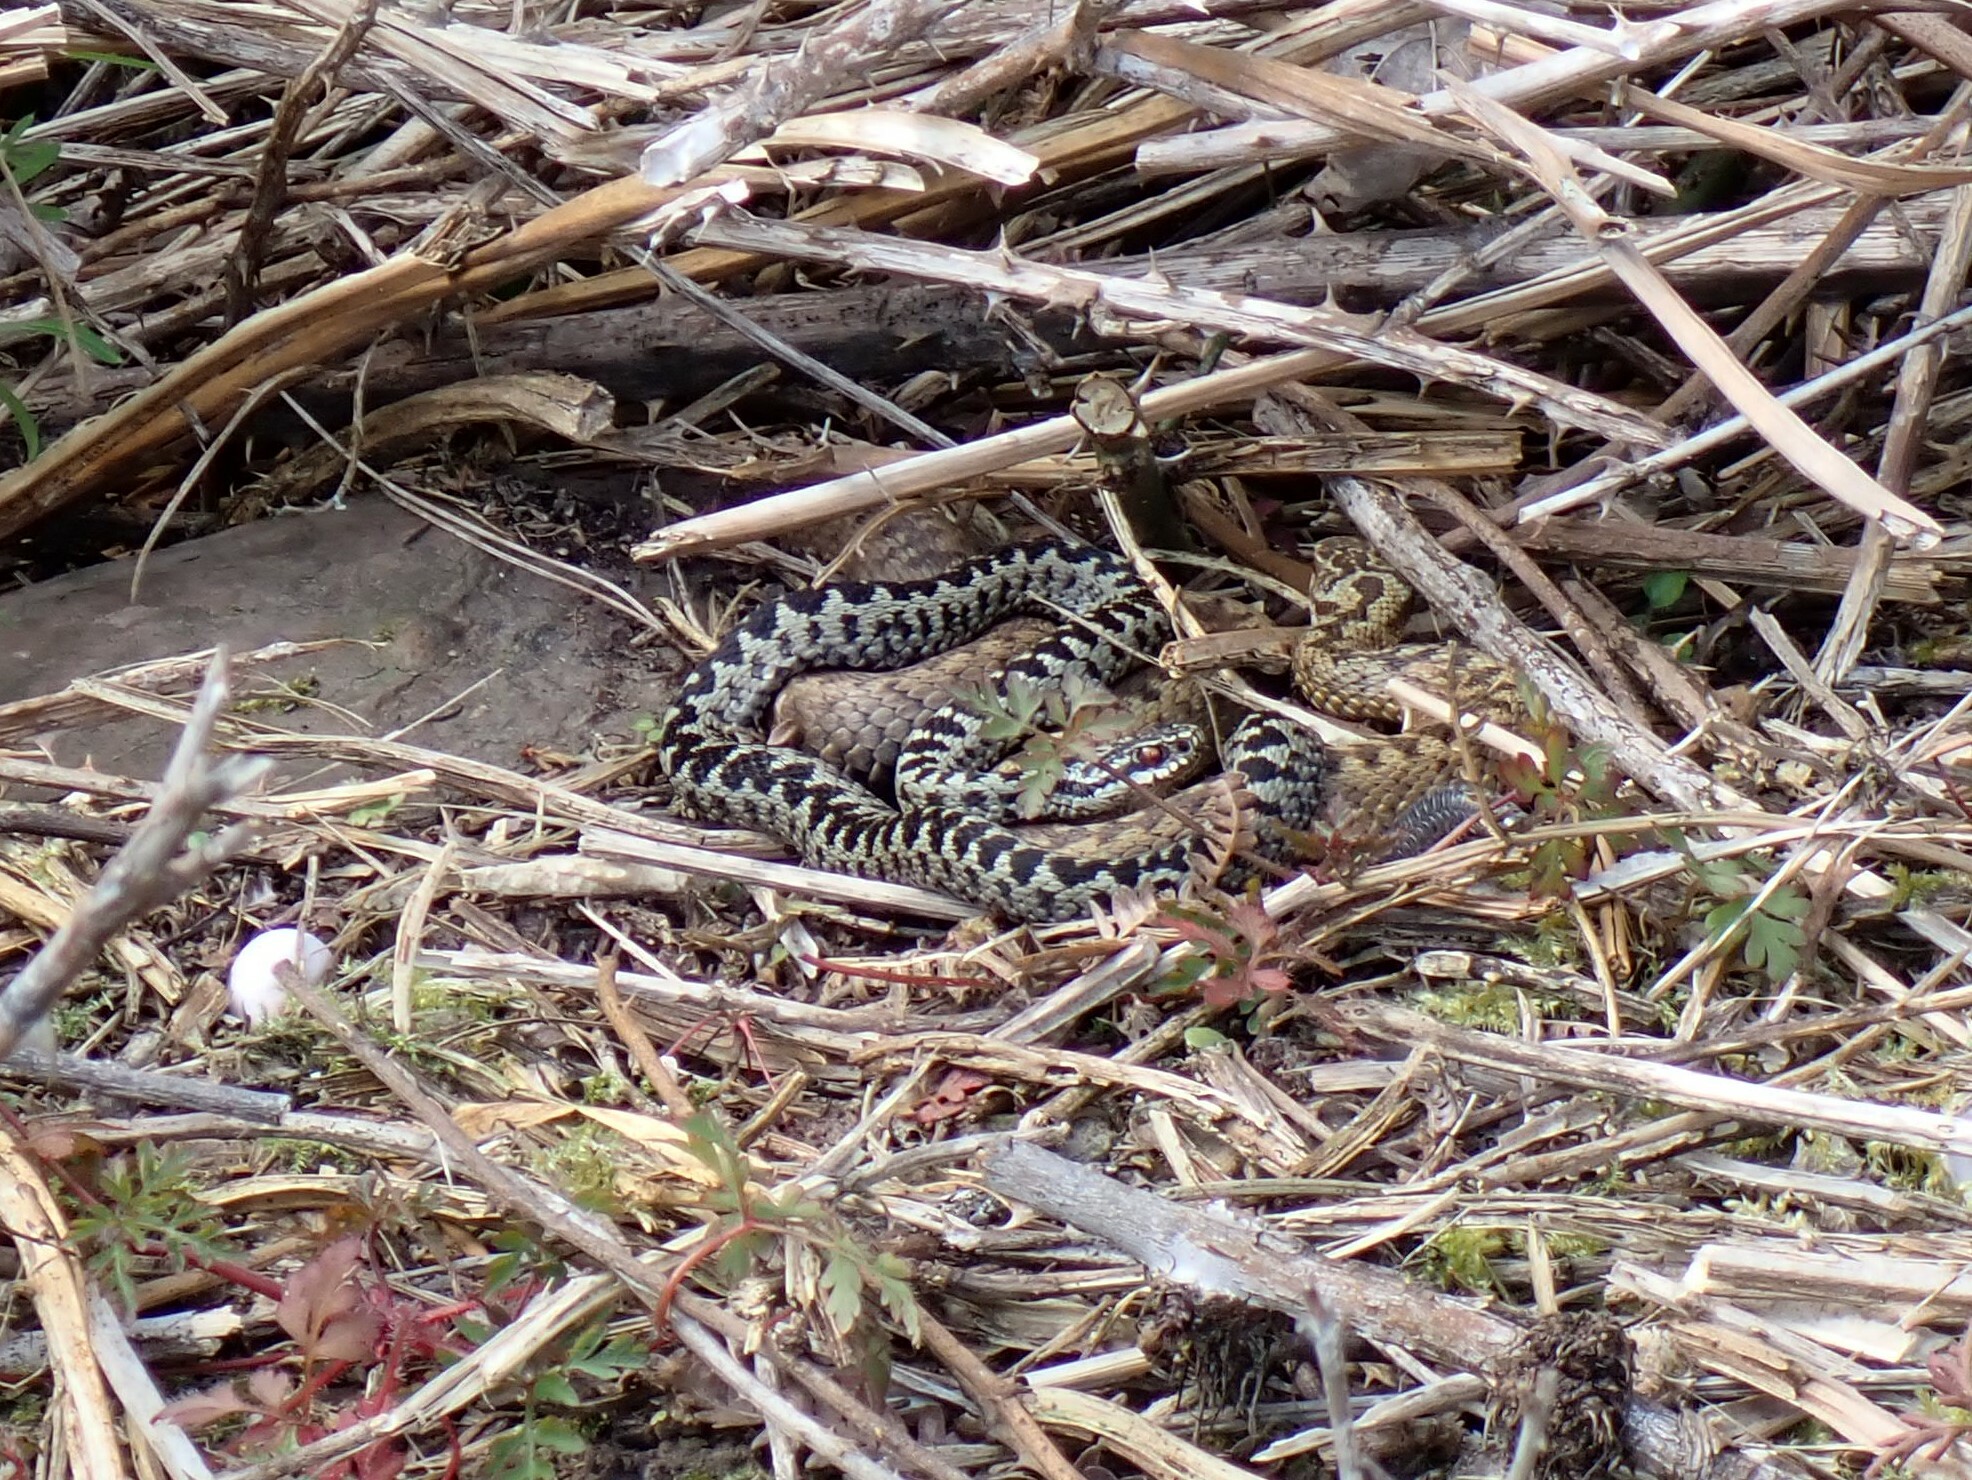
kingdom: Animalia
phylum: Chordata
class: Squamata
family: Viperidae
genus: Vipera
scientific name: Vipera berus
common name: Adder
